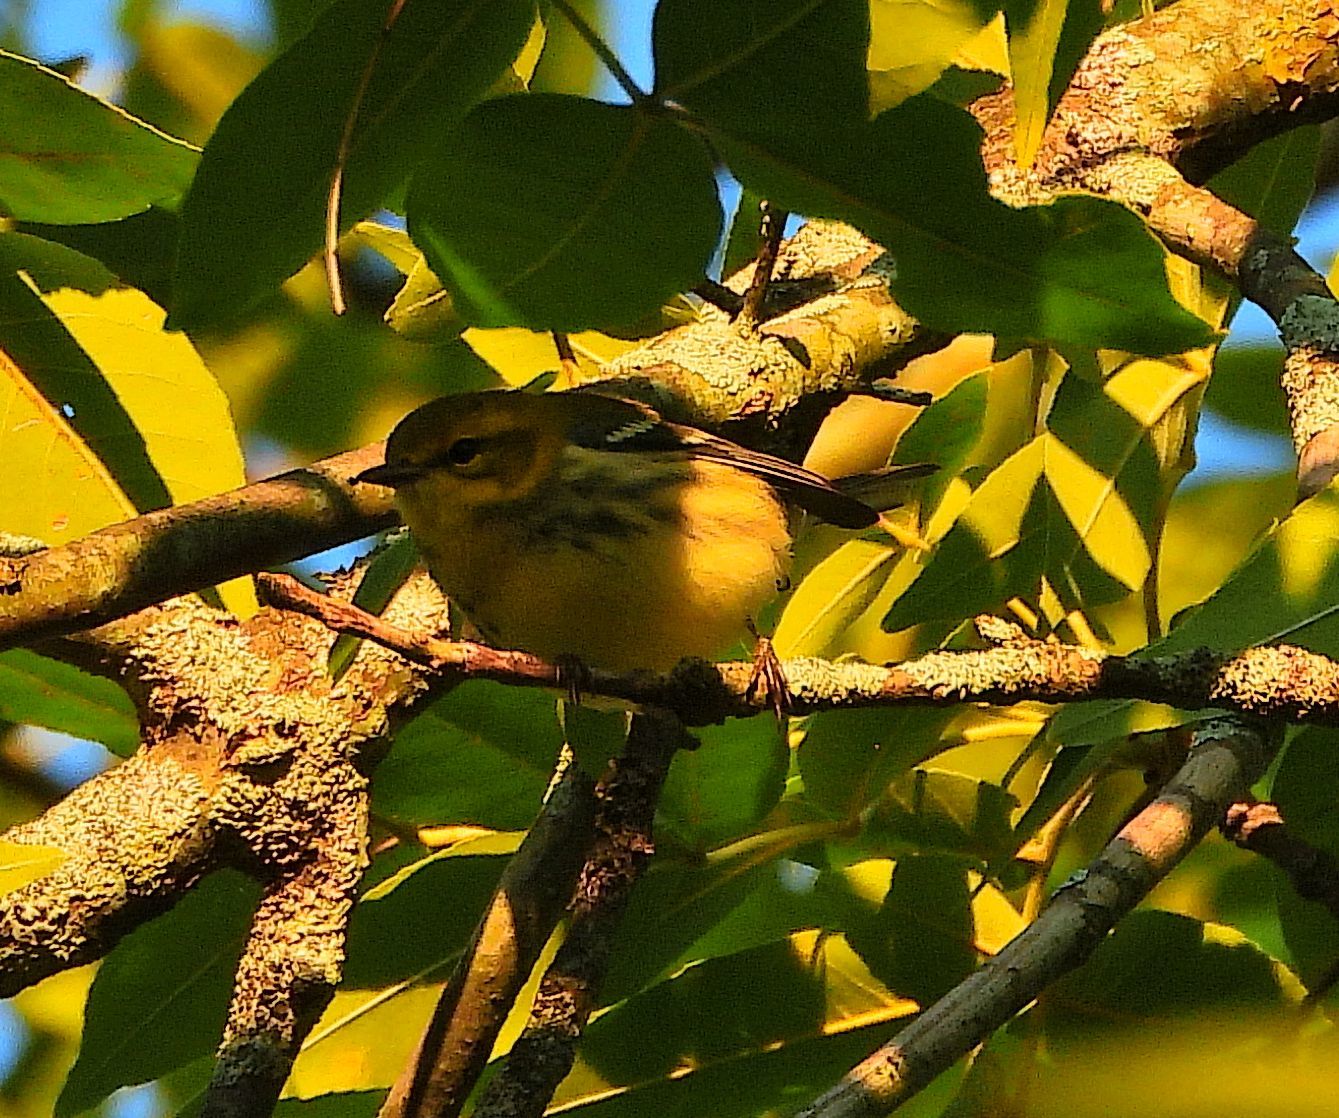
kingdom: Animalia
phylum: Chordata
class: Aves
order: Passeriformes
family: Parulidae
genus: Setophaga
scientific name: Setophaga virens
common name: Black-throated green warbler
